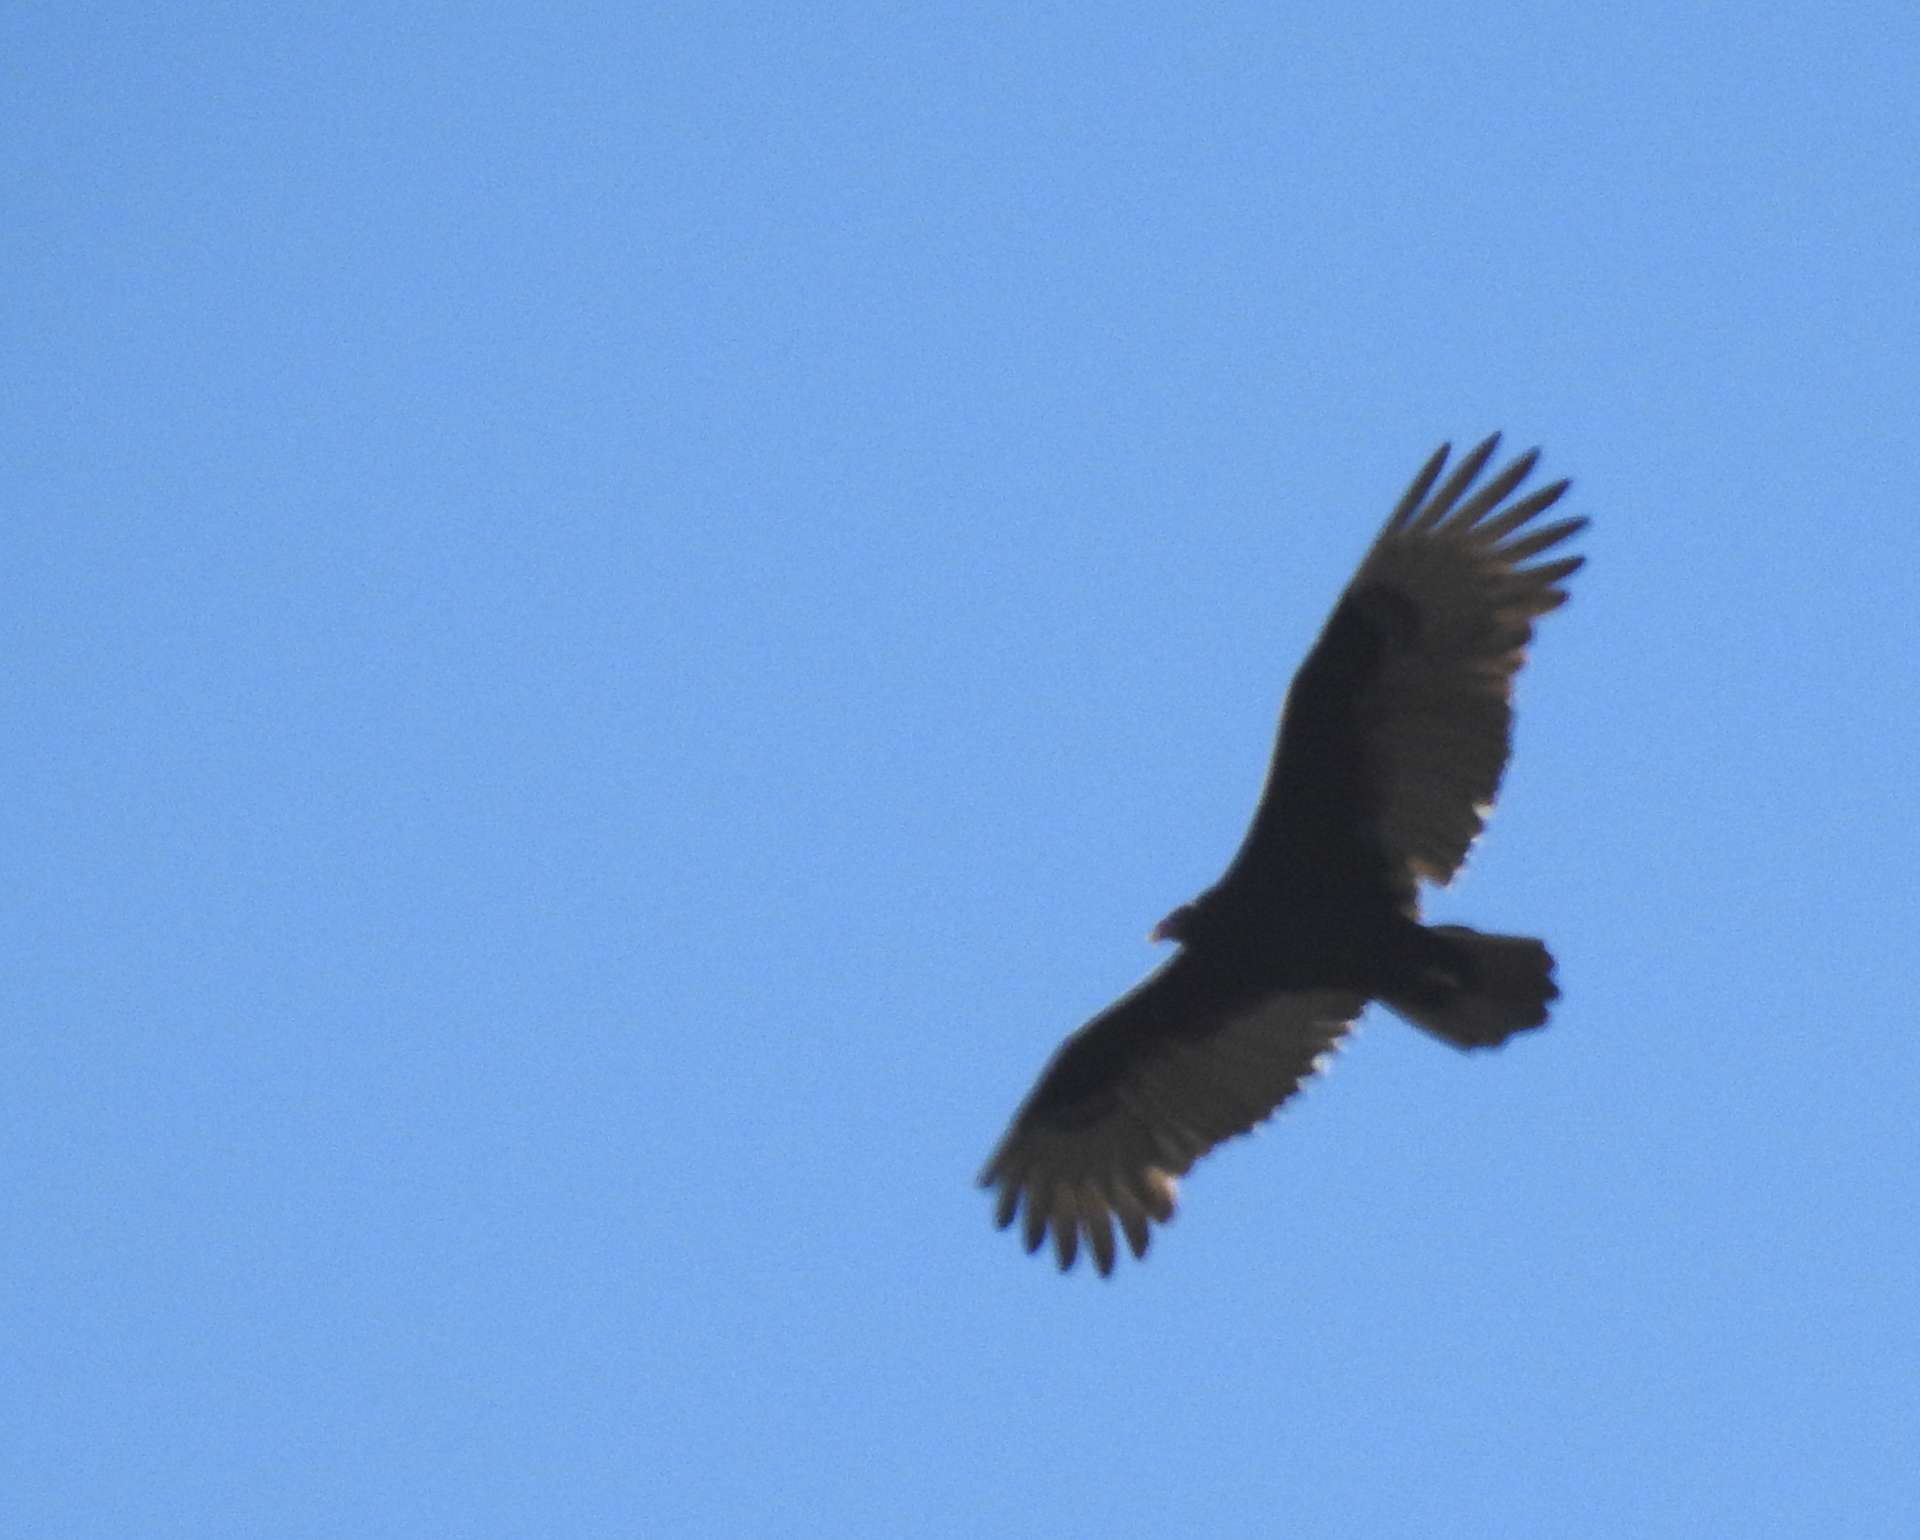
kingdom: Animalia
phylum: Chordata
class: Aves
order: Accipitriformes
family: Cathartidae
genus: Cathartes
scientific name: Cathartes aura
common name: Turkey vulture
